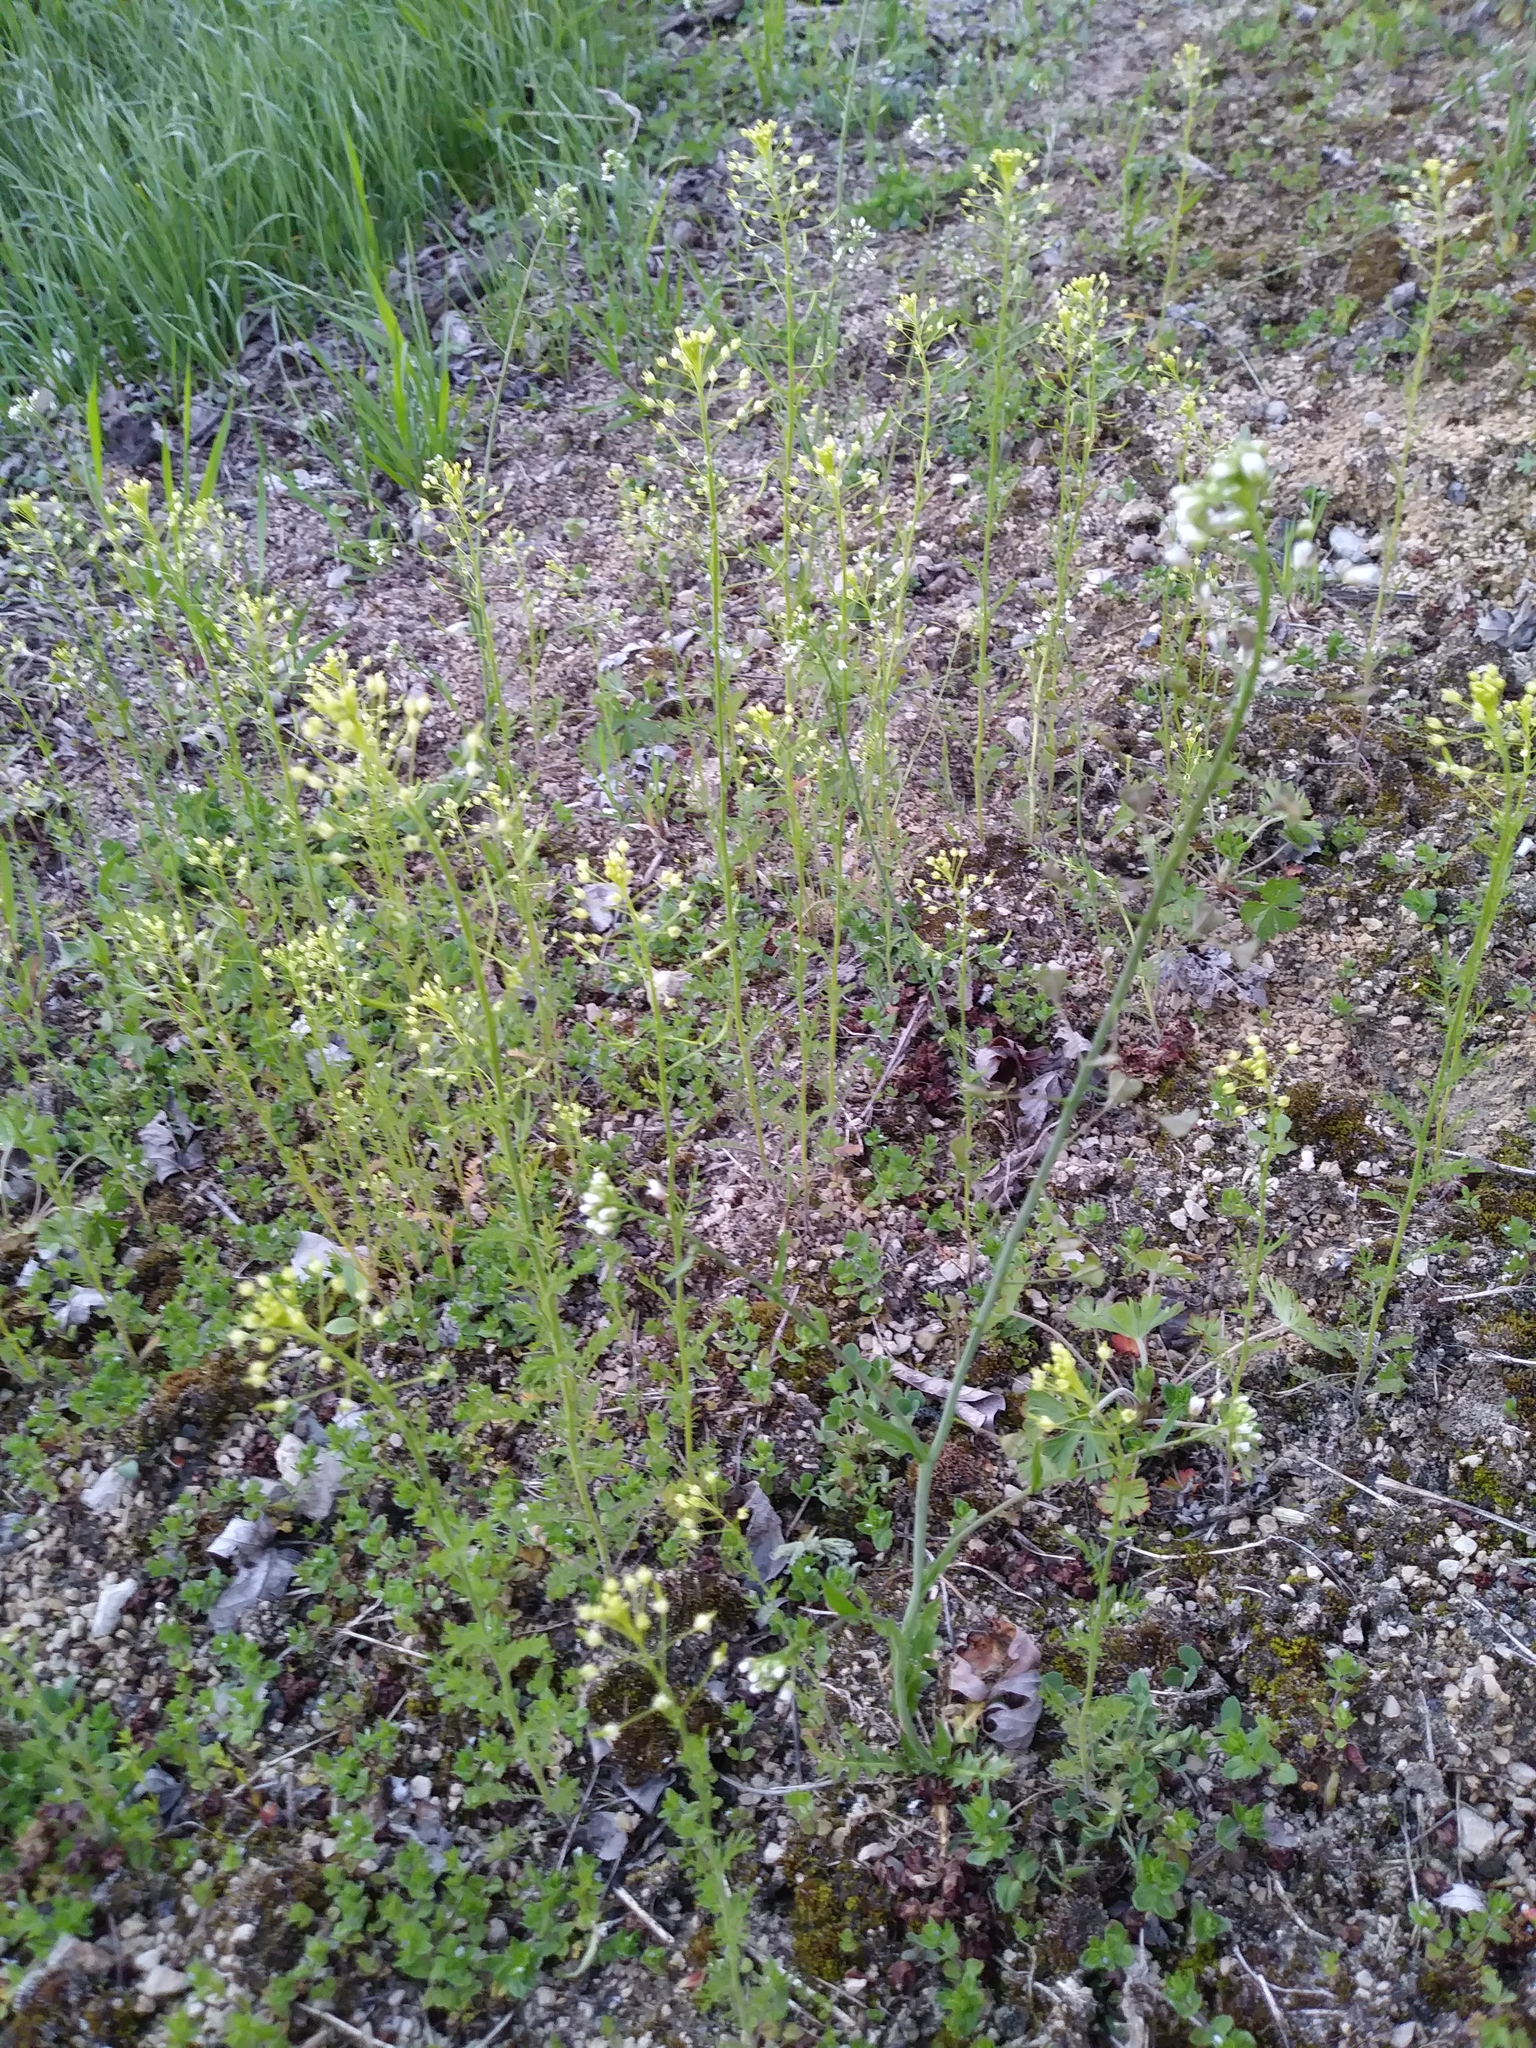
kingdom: Plantae
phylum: Tracheophyta
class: Magnoliopsida
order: Brassicales
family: Brassicaceae
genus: Capsella
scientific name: Capsella bursa-pastoris
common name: Shepherd's purse
